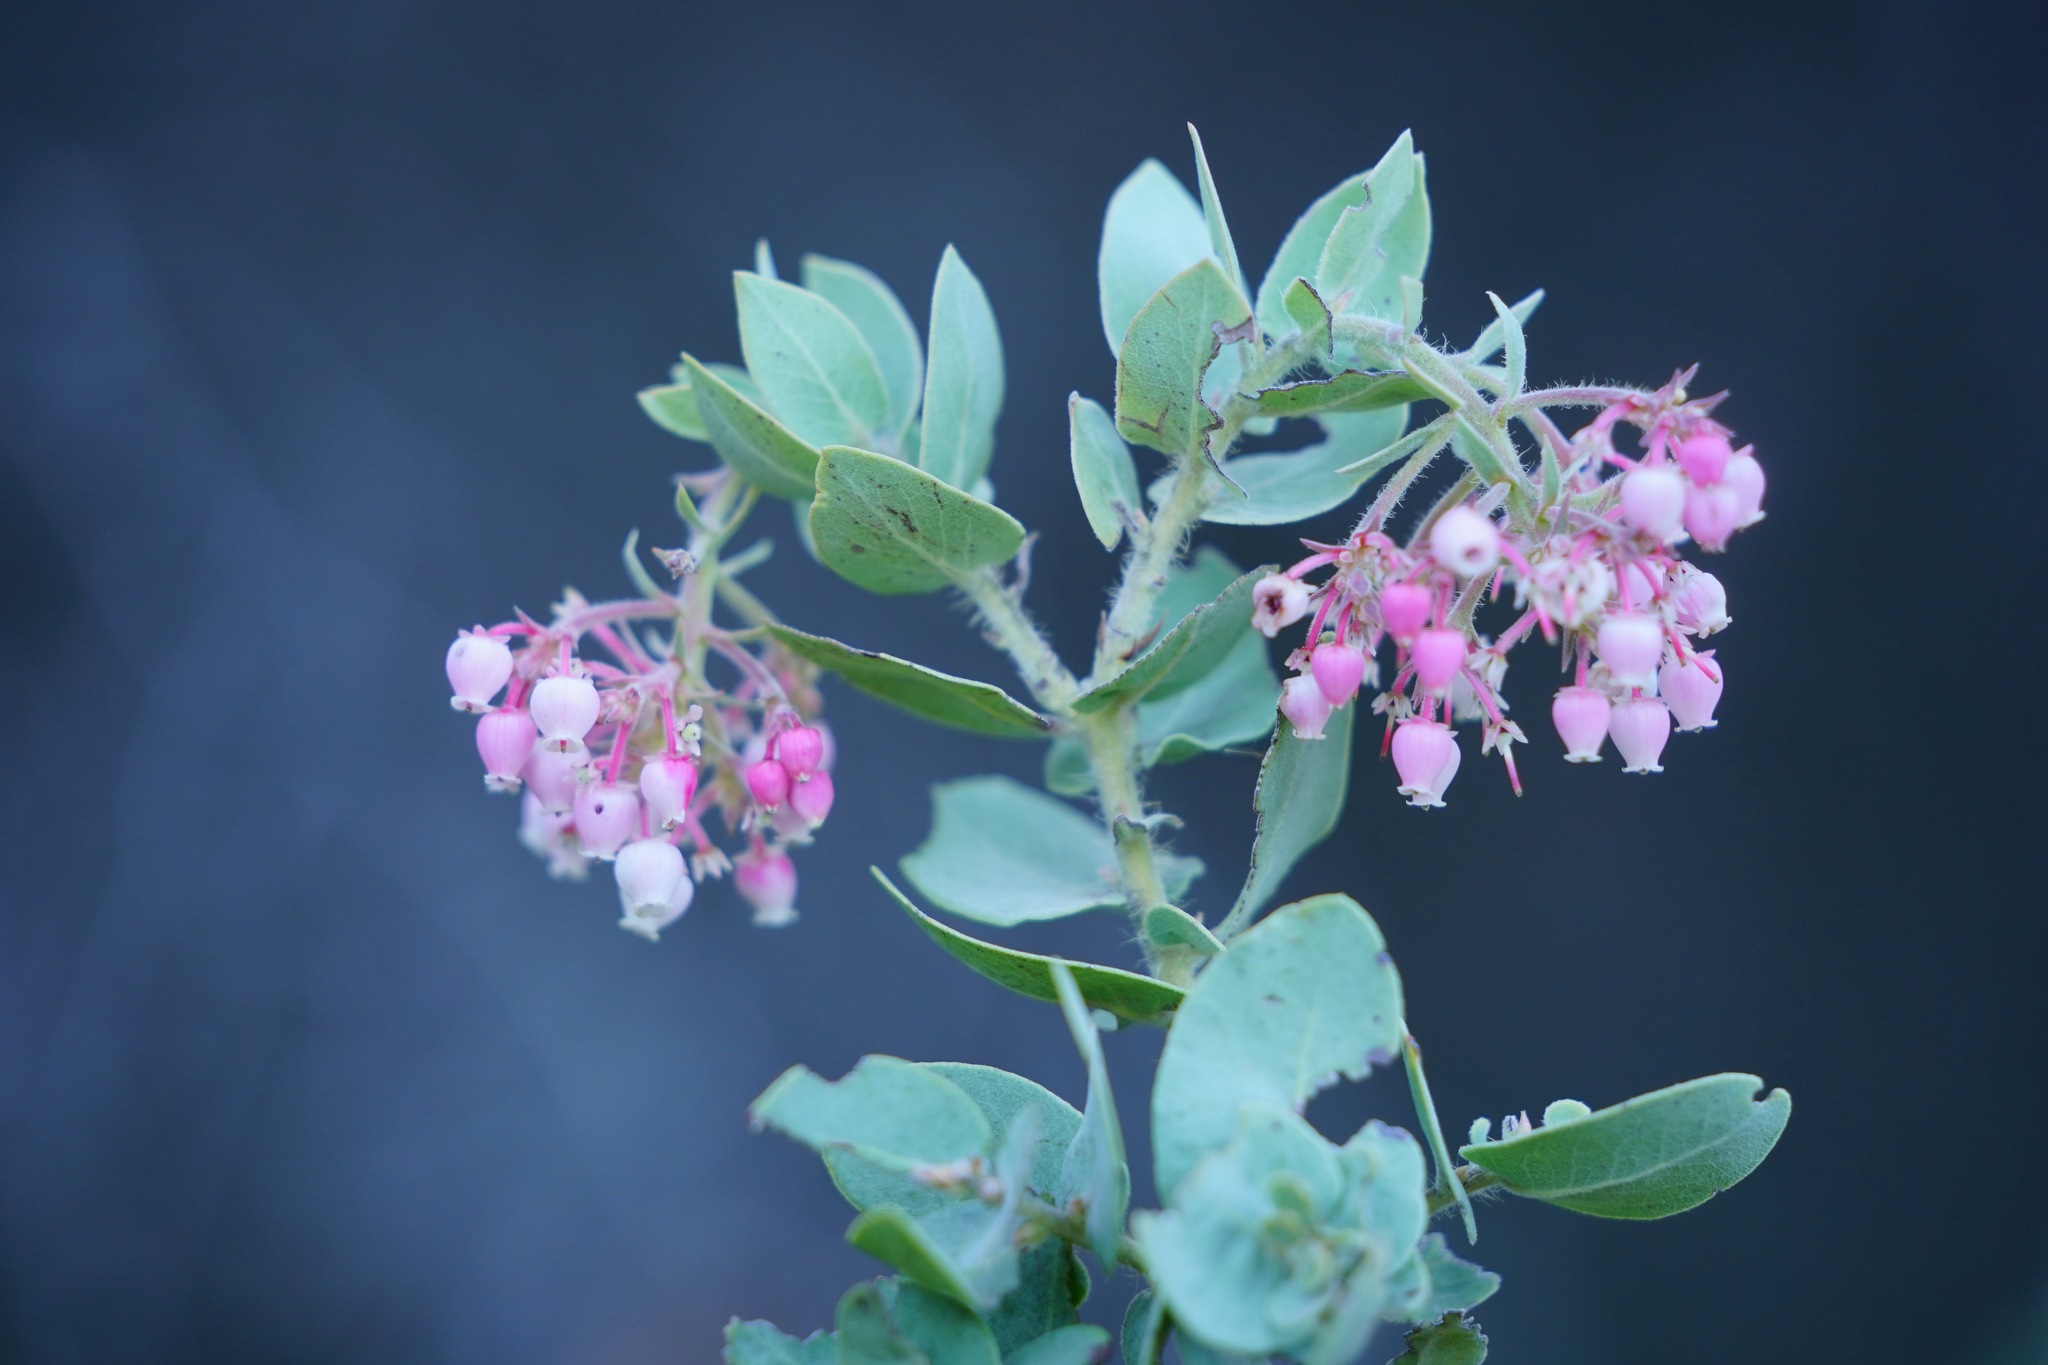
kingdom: Plantae
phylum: Tracheophyta
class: Magnoliopsida
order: Ericales
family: Ericaceae
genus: Arctostaphylos
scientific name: Arctostaphylos auriculata
